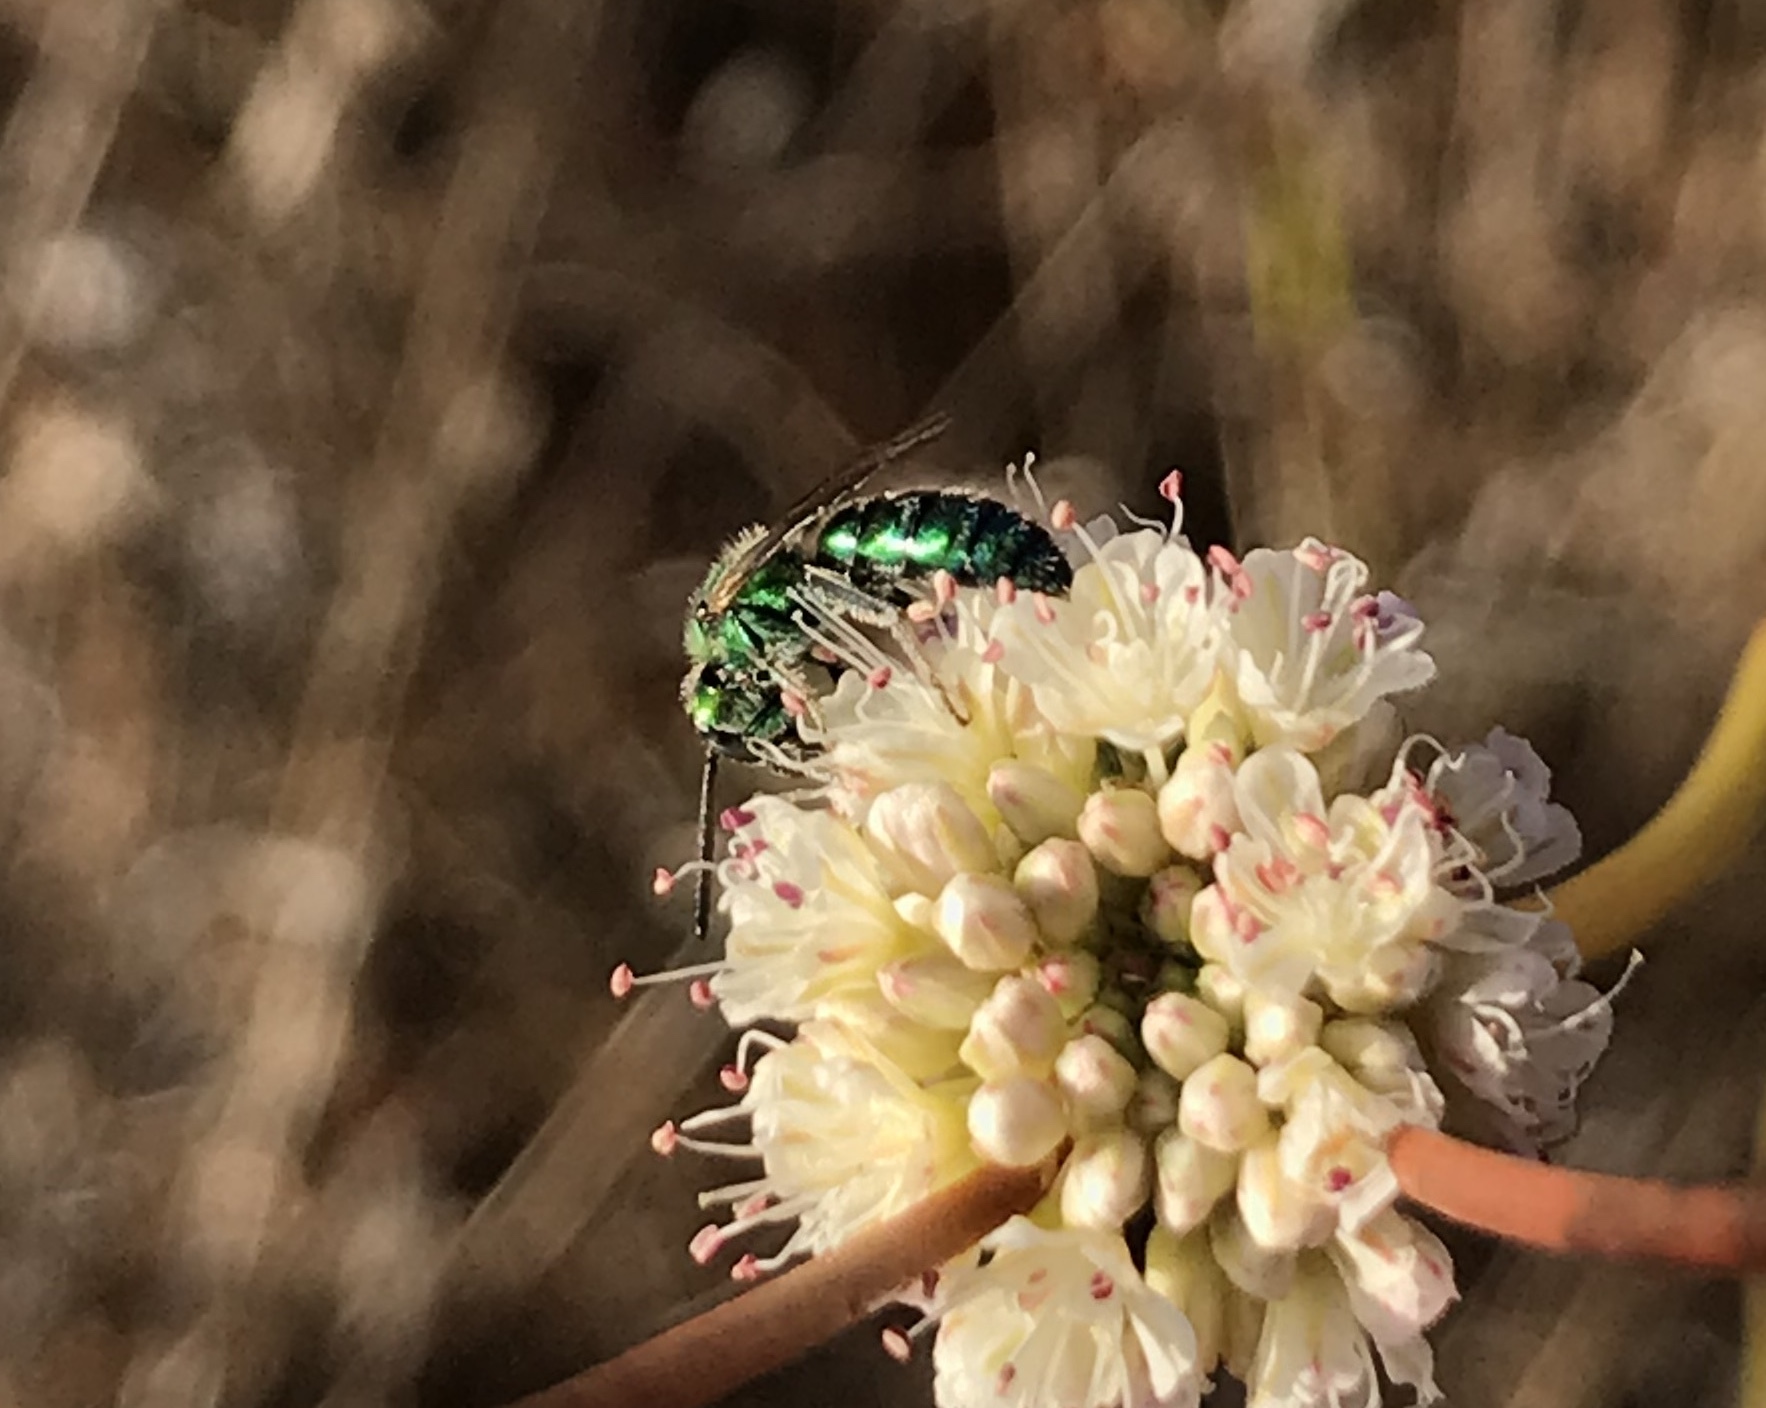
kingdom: Animalia
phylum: Arthropoda
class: Insecta
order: Hymenoptera
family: Halictidae
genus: Augochlorella
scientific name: Augochlorella pomoniella
